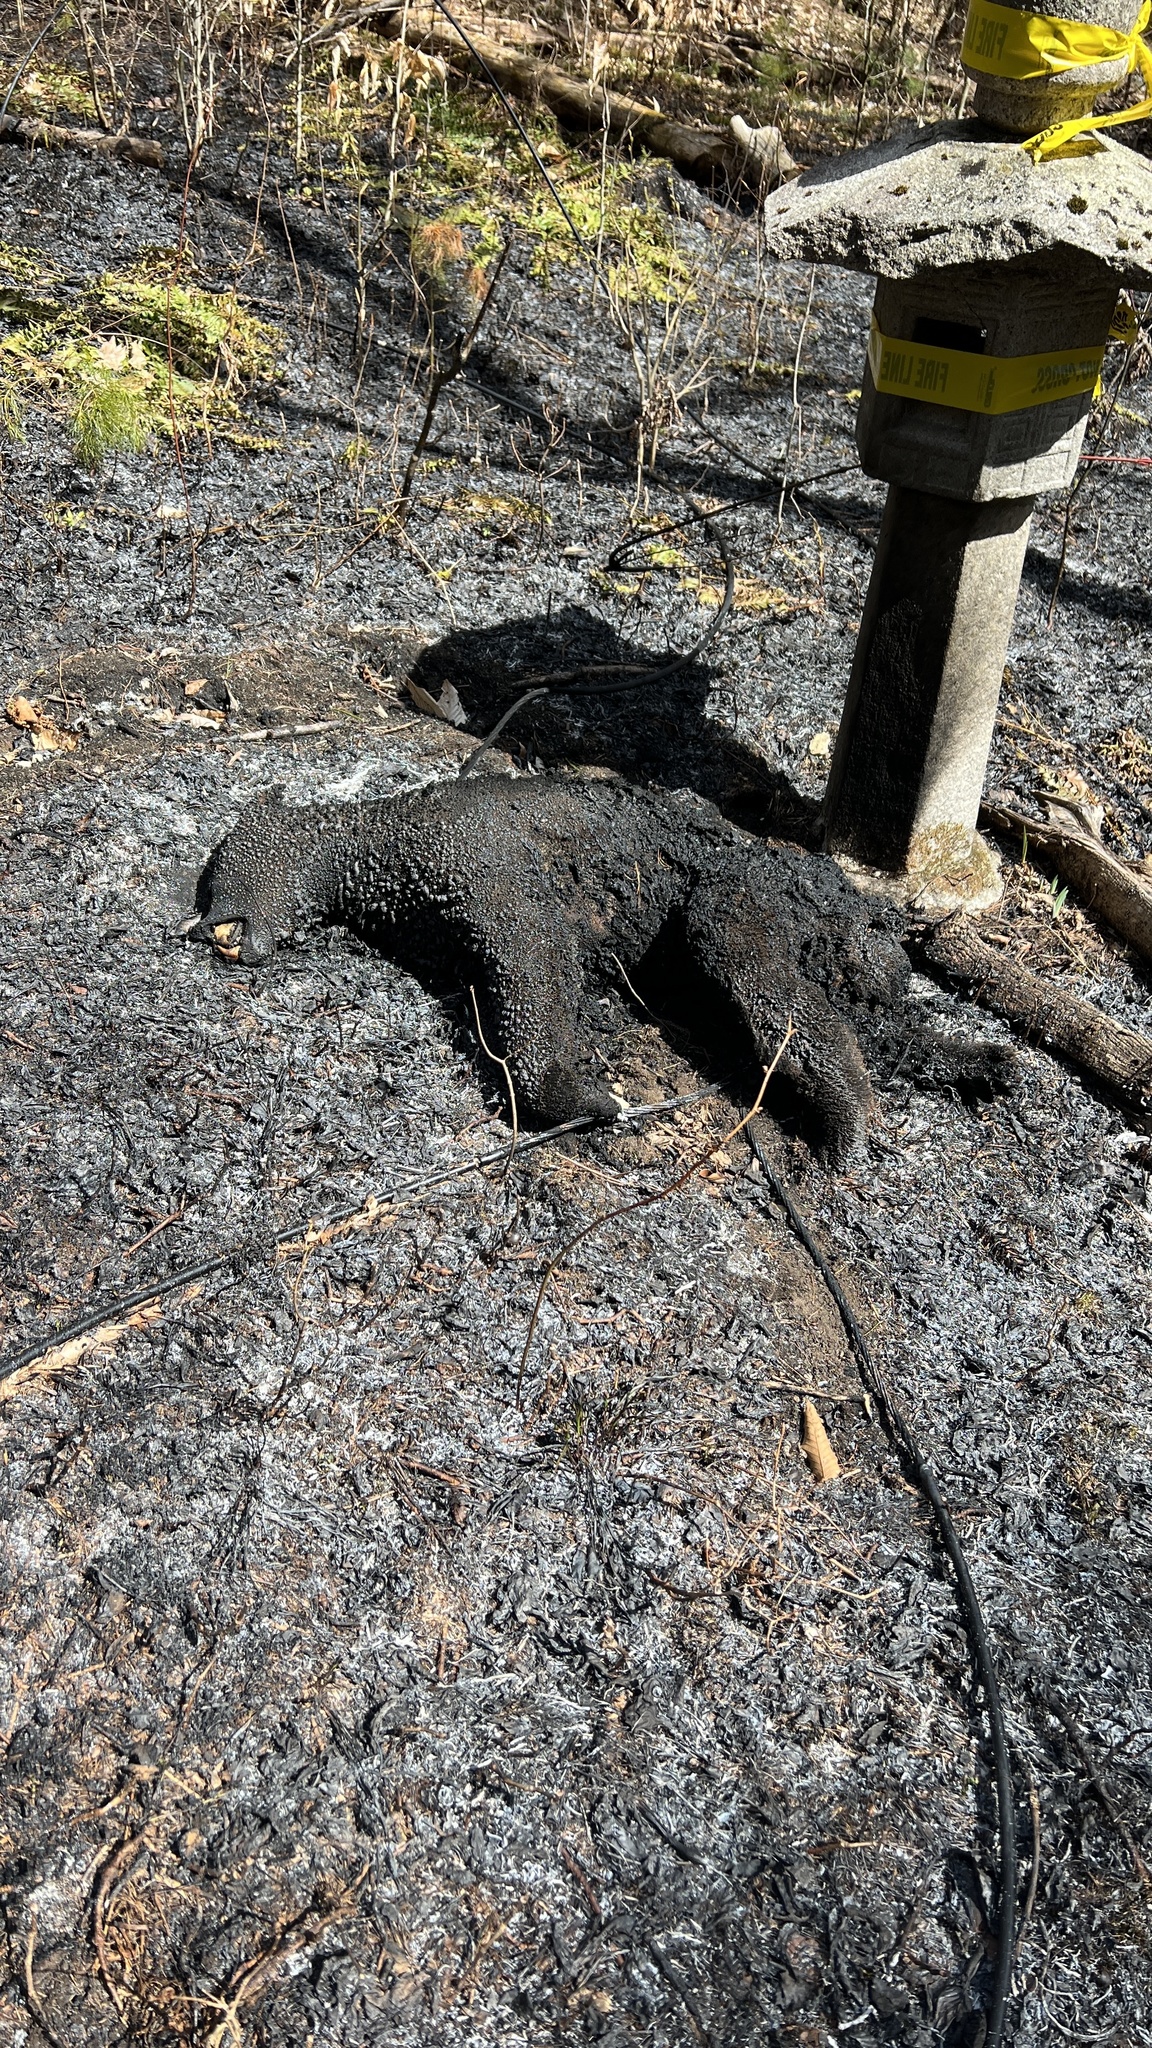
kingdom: Animalia
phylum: Chordata
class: Mammalia
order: Carnivora
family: Ursidae
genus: Ursus
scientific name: Ursus americanus
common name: American black bear
